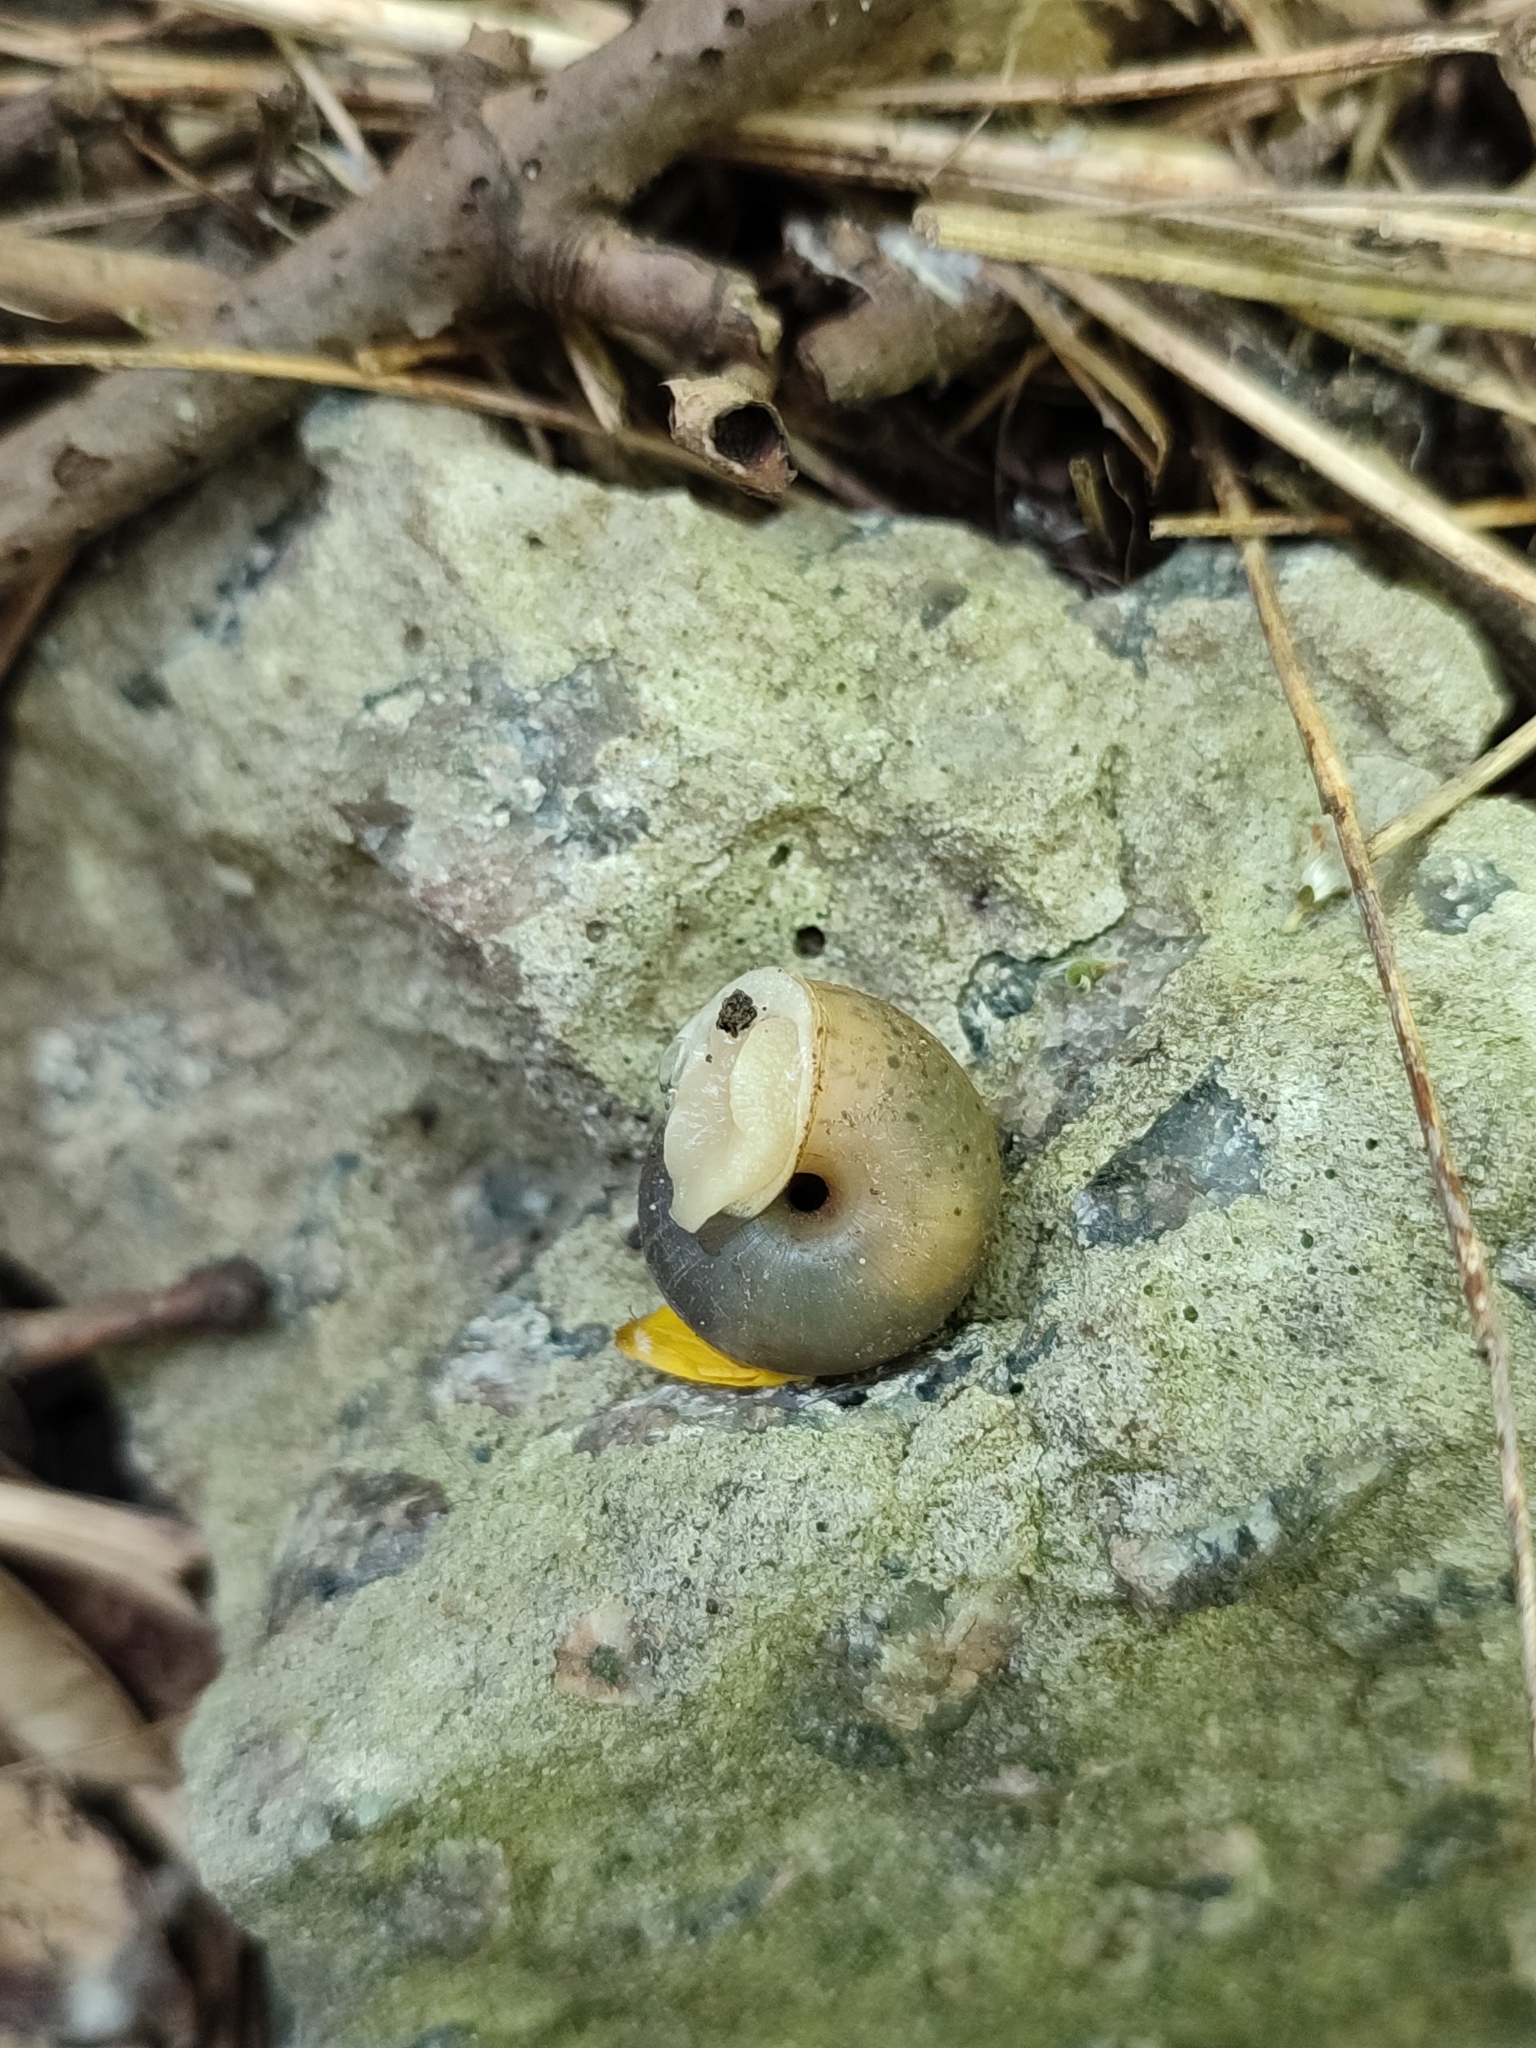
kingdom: Animalia
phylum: Mollusca
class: Gastropoda
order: Stylommatophora
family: Camaenidae
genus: Fruticicola
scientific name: Fruticicola fruticum
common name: Bush snail
